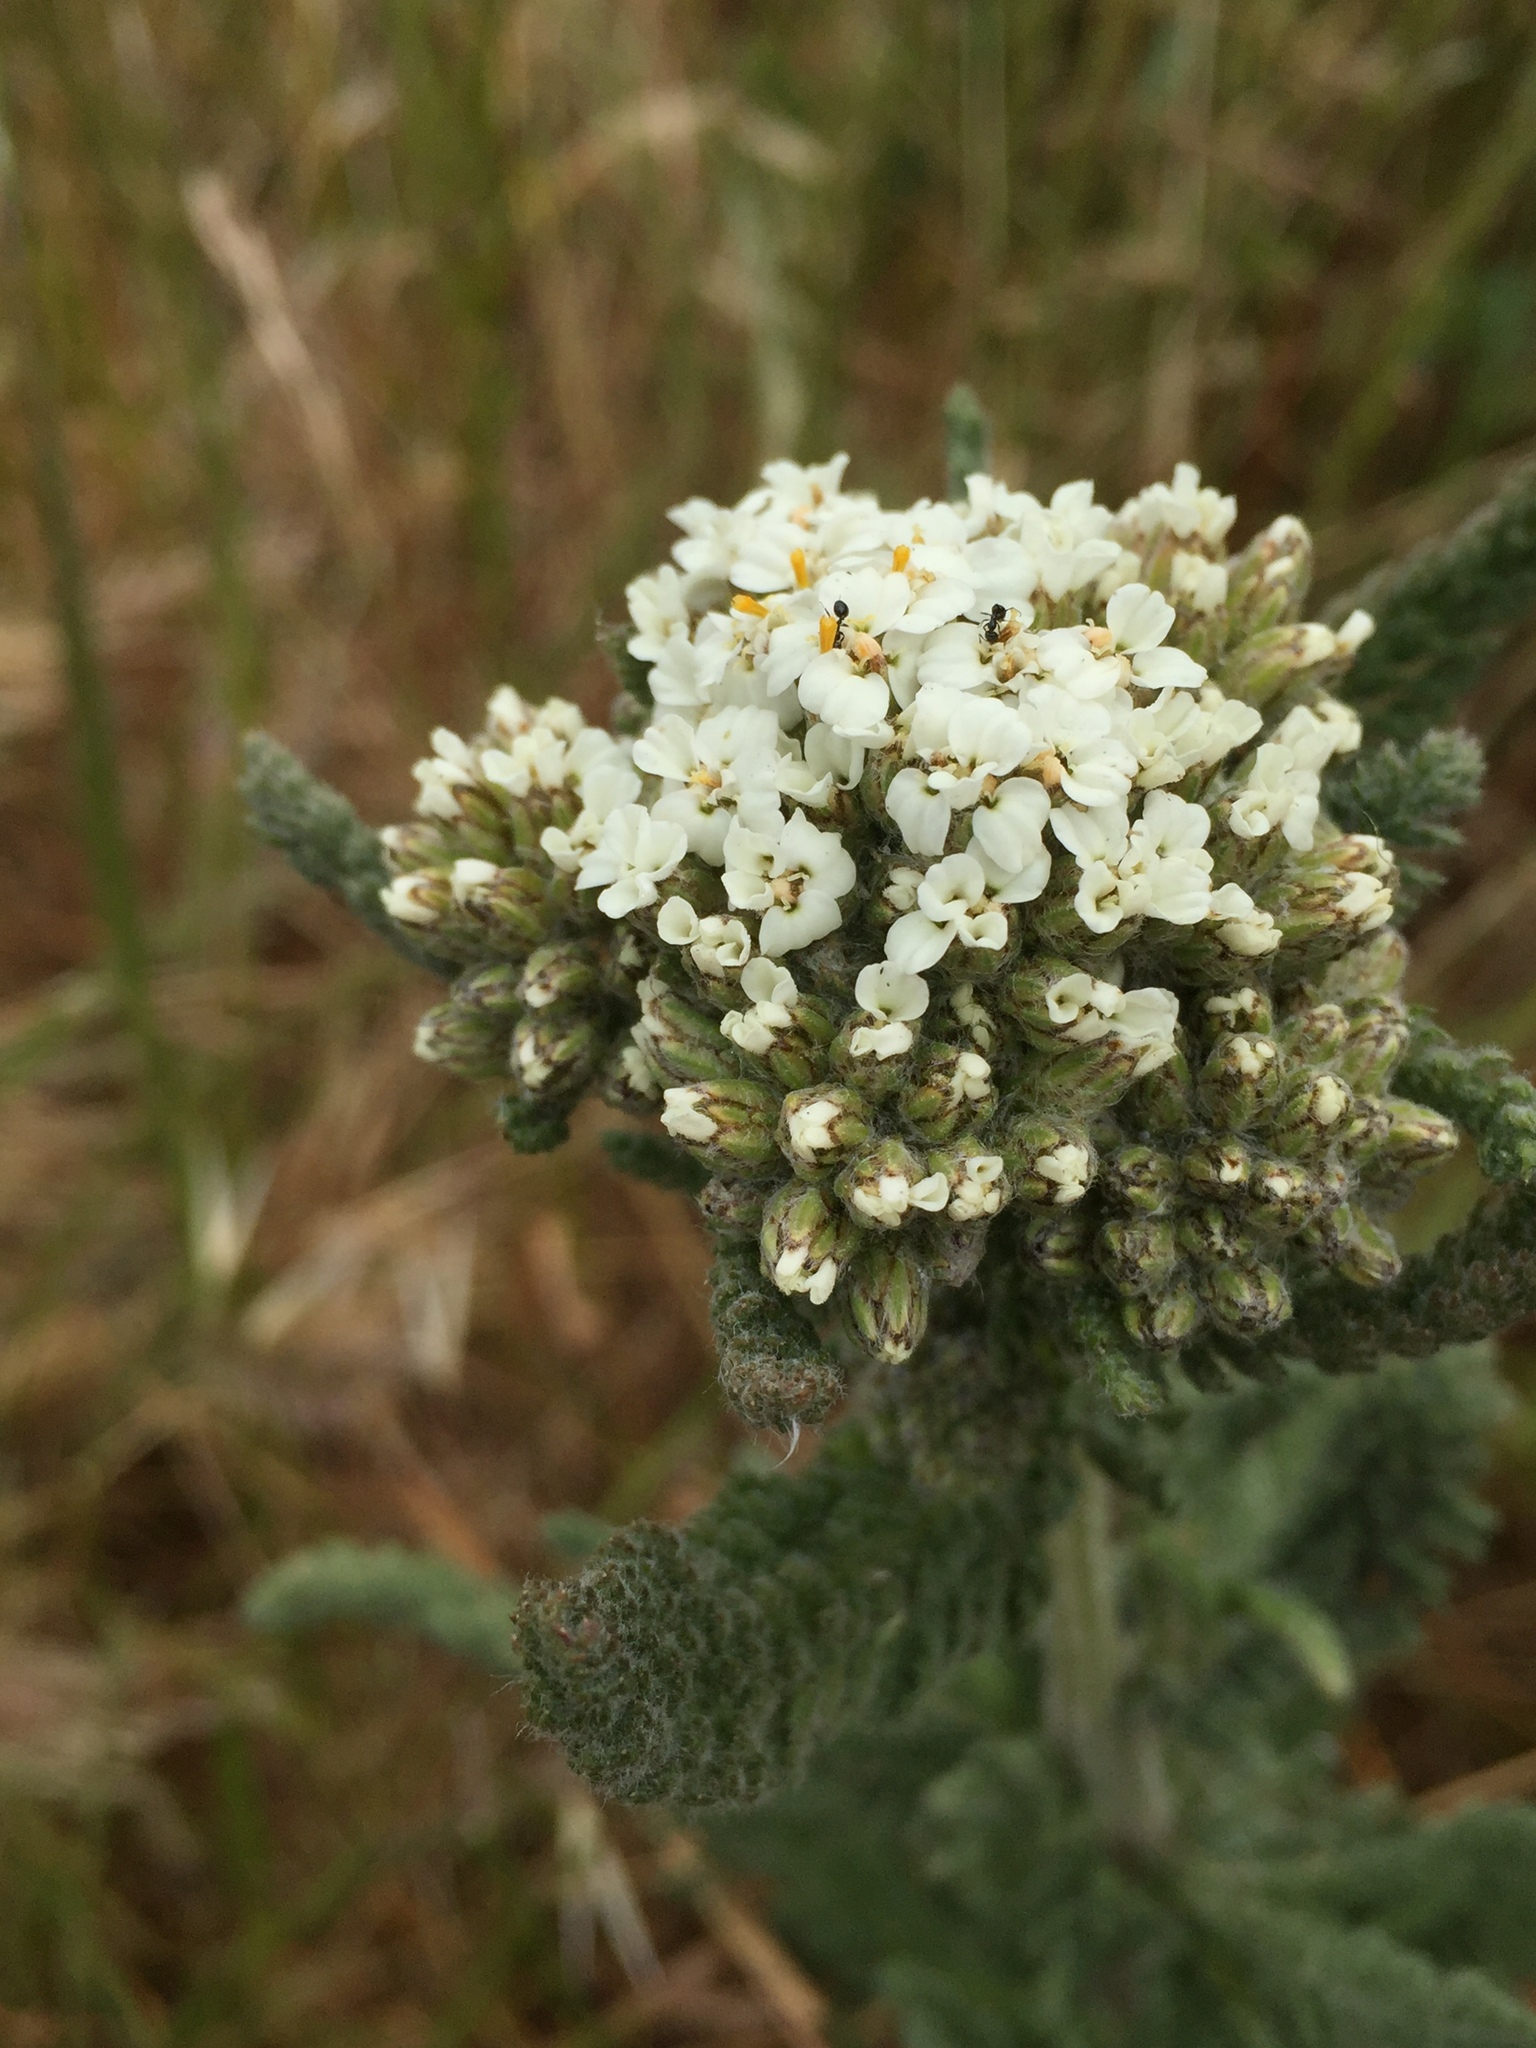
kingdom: Plantae
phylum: Tracheophyta
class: Magnoliopsida
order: Asterales
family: Asteraceae
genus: Achillea
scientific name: Achillea millefolium
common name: Yarrow
